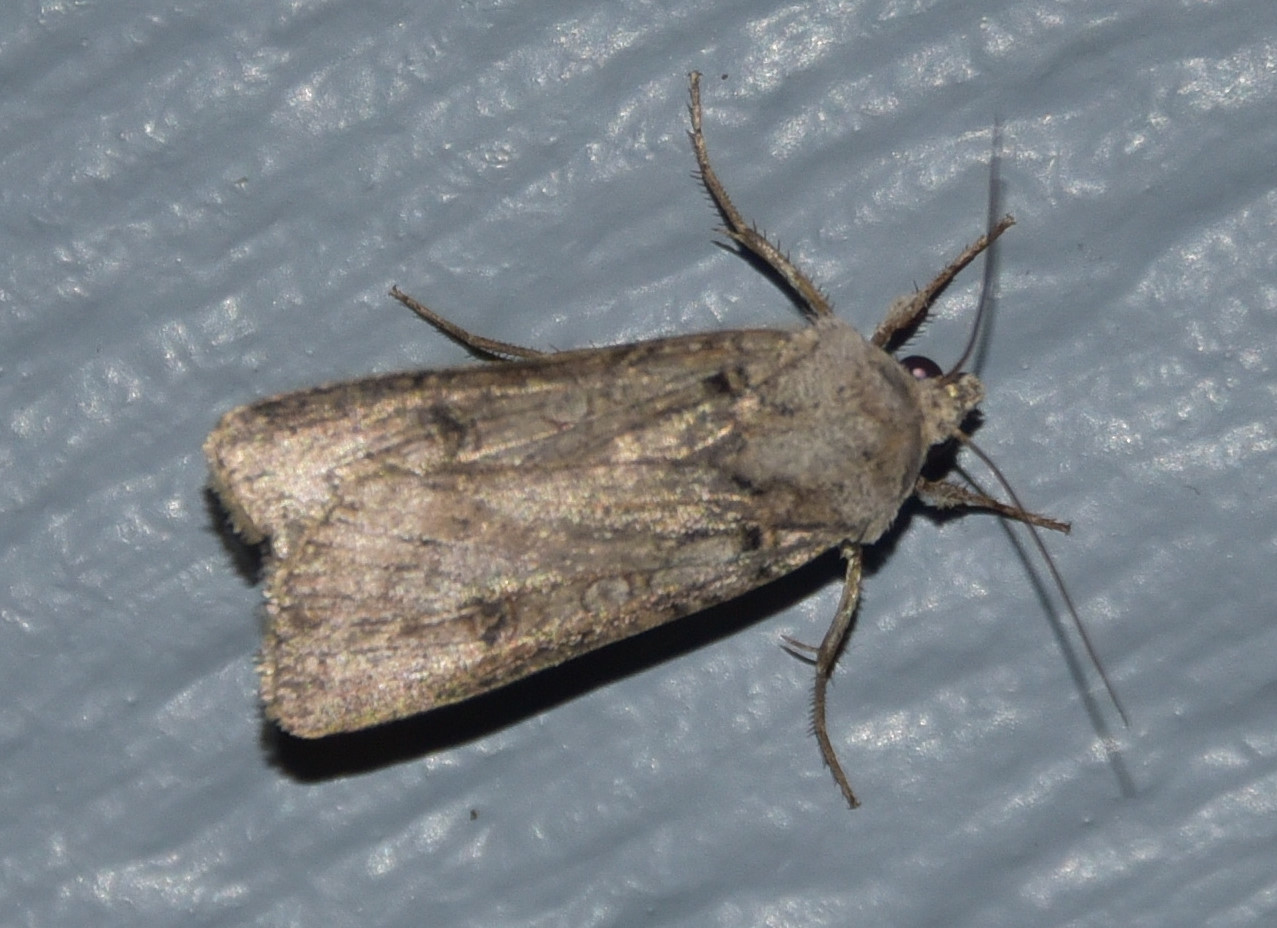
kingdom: Animalia
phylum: Arthropoda
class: Insecta
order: Lepidoptera
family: Noctuidae
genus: Anicla
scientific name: Anicla infecta
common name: Green cutworm
